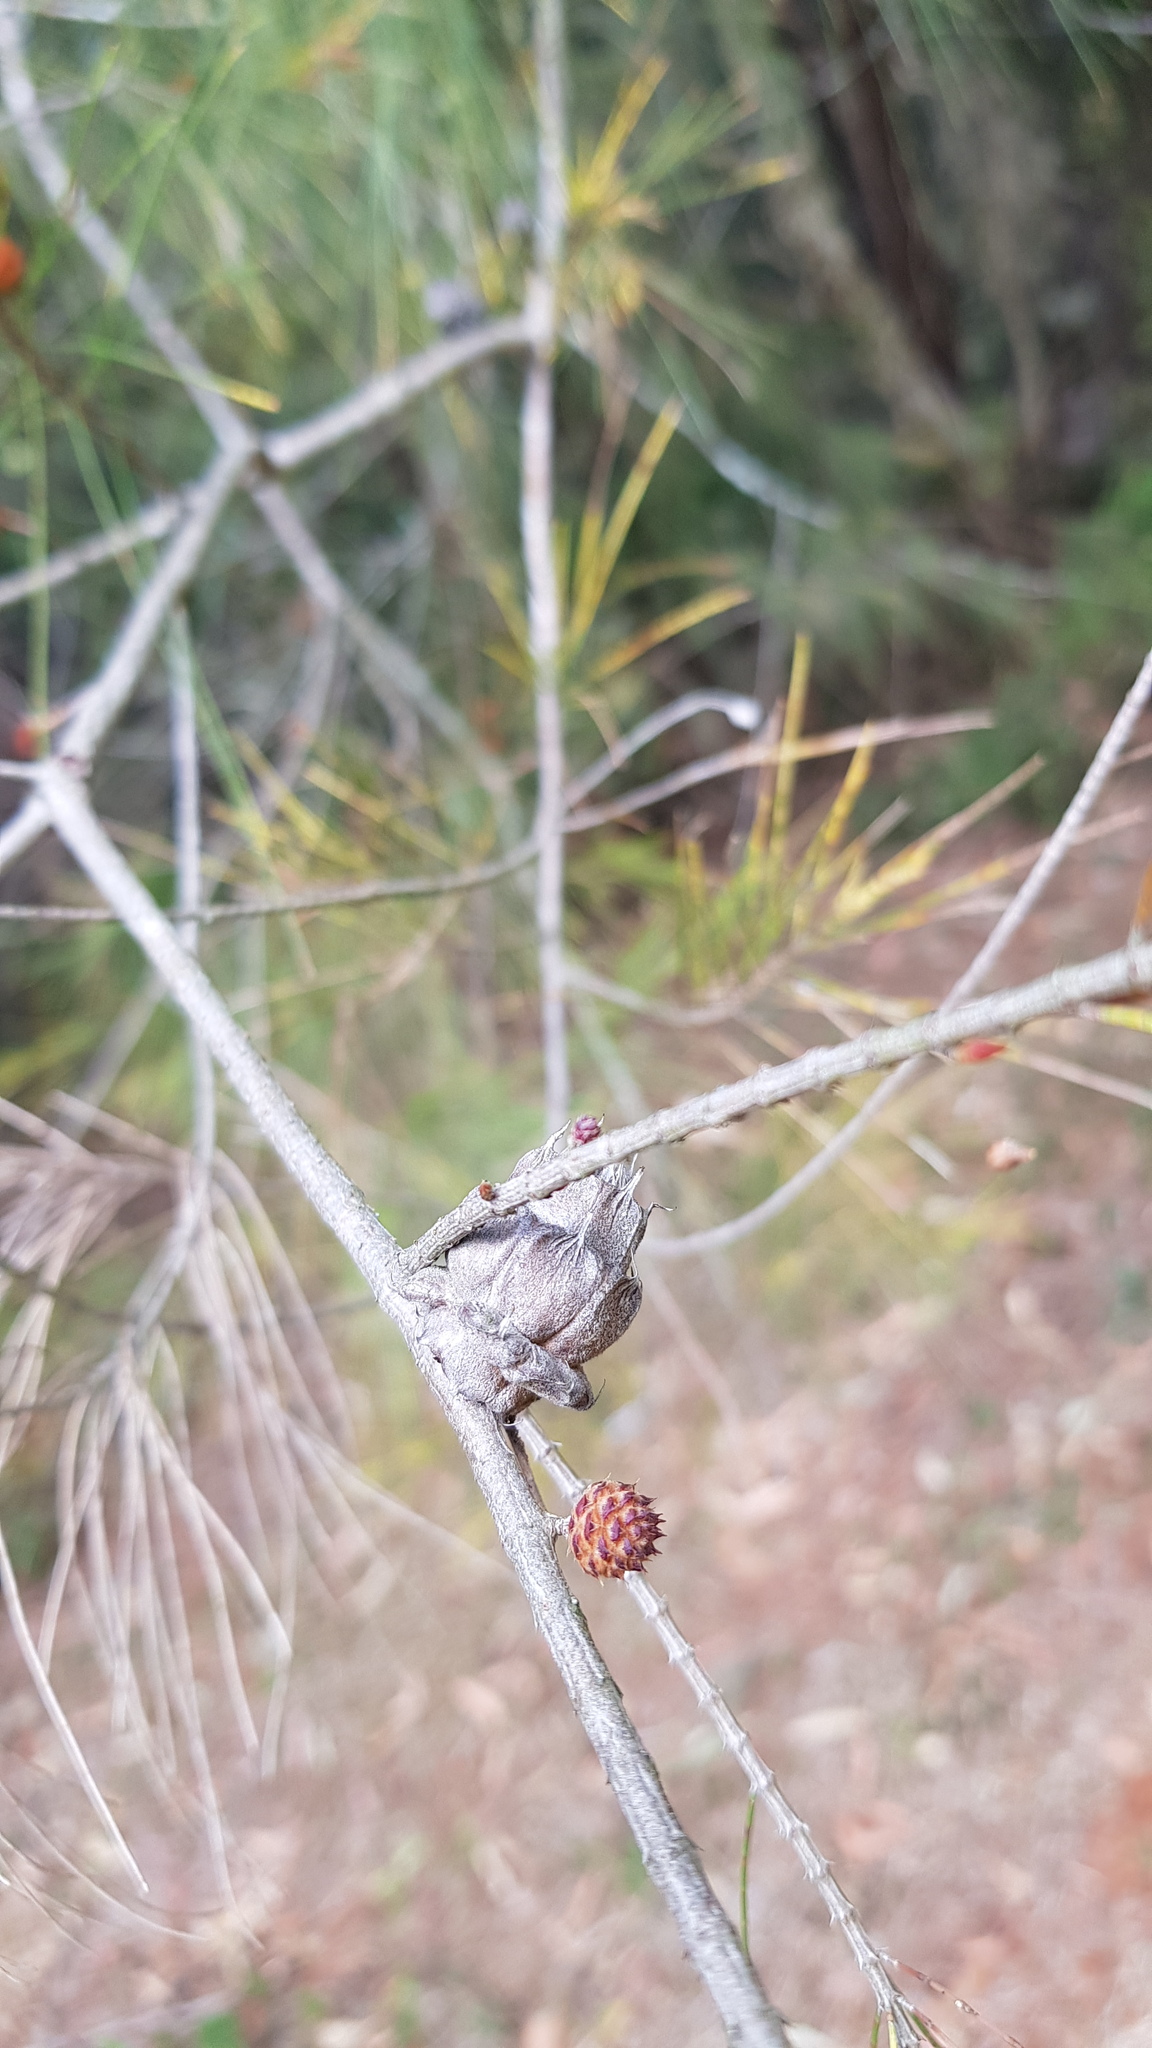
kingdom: Animalia
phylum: Arthropoda
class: Insecta
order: Hemiptera
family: Eriococcidae
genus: Cylindrococcus
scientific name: Cylindrococcus spiniferus
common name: Casuarina gall
